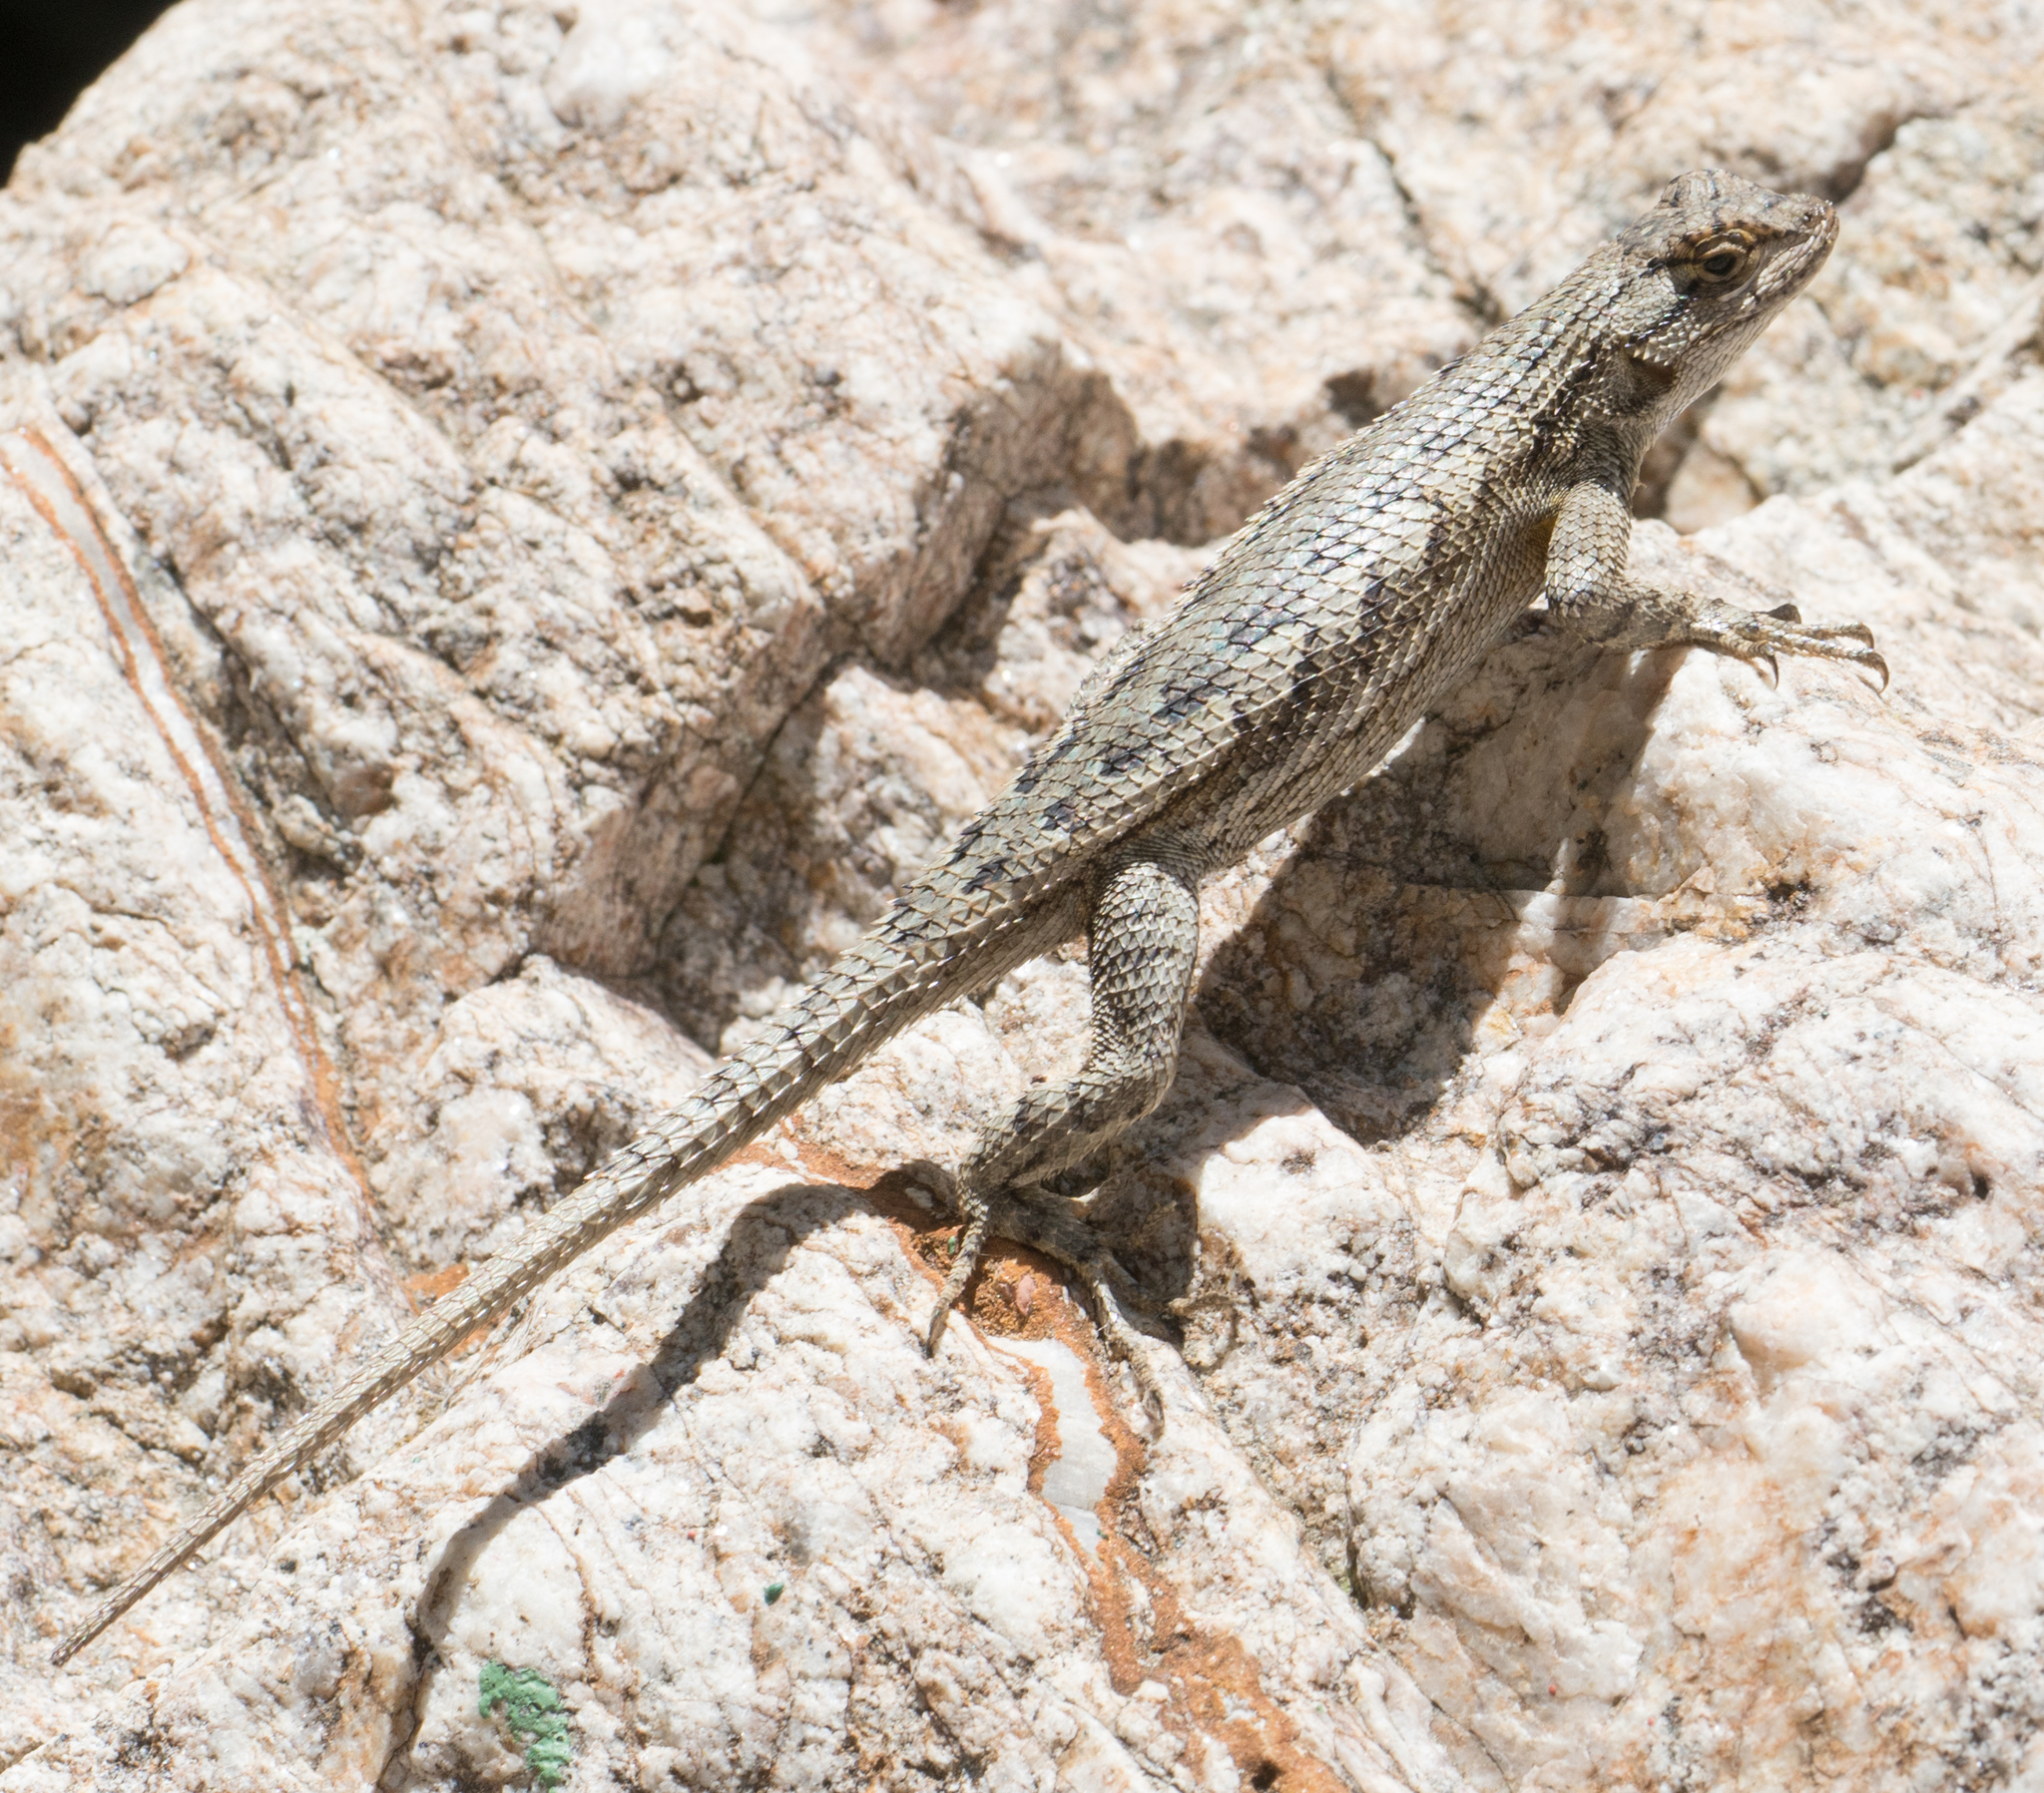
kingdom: Animalia
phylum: Chordata
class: Squamata
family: Phrynosomatidae
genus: Sceloporus
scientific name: Sceloporus occidentalis
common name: Western fence lizard
